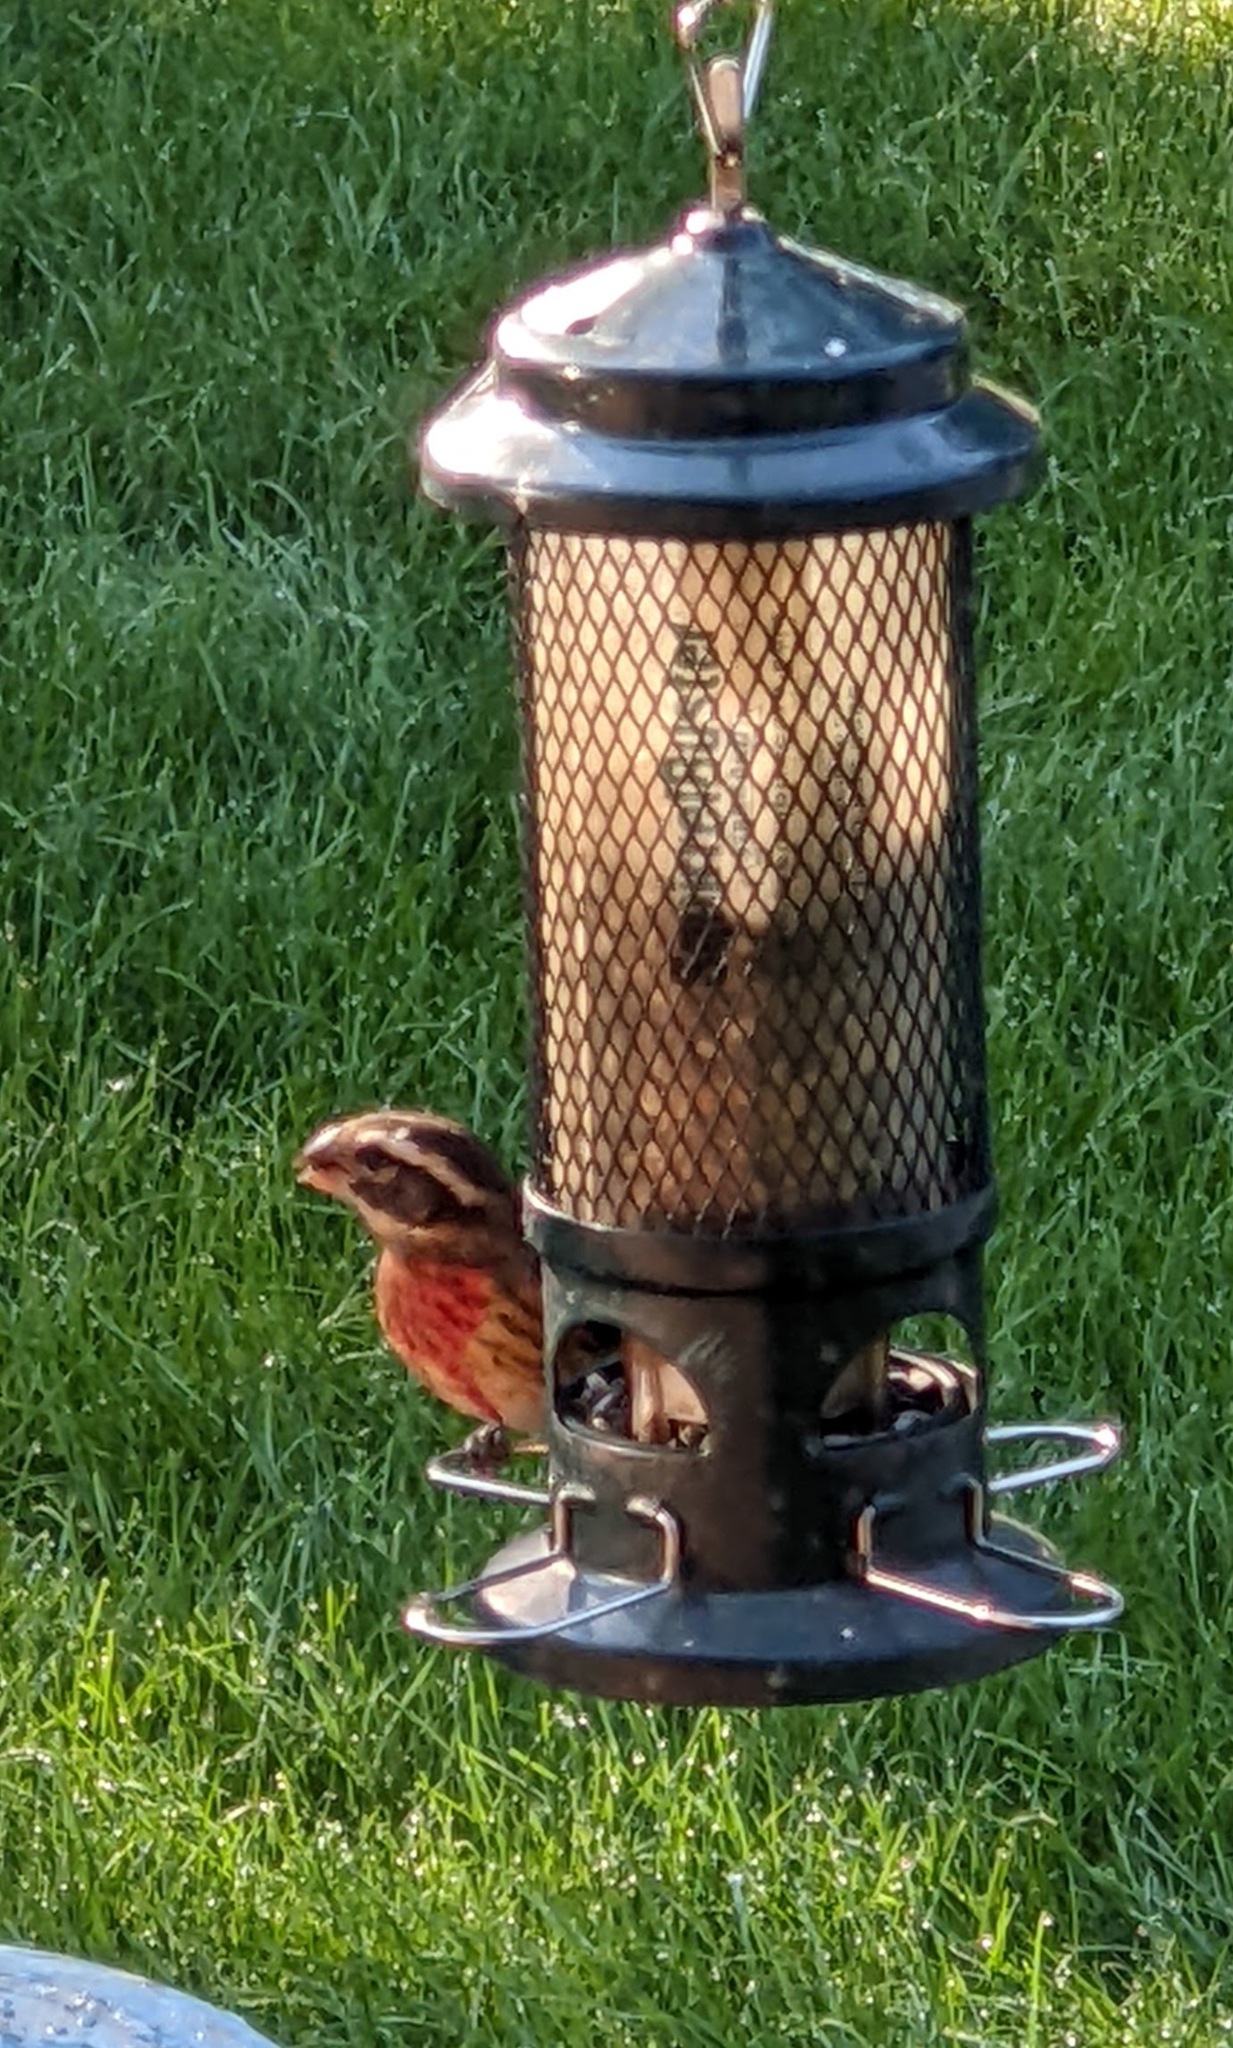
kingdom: Animalia
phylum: Chordata
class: Aves
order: Passeriformes
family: Cardinalidae
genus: Pheucticus
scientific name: Pheucticus ludovicianus
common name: Rose-breasted grosbeak
